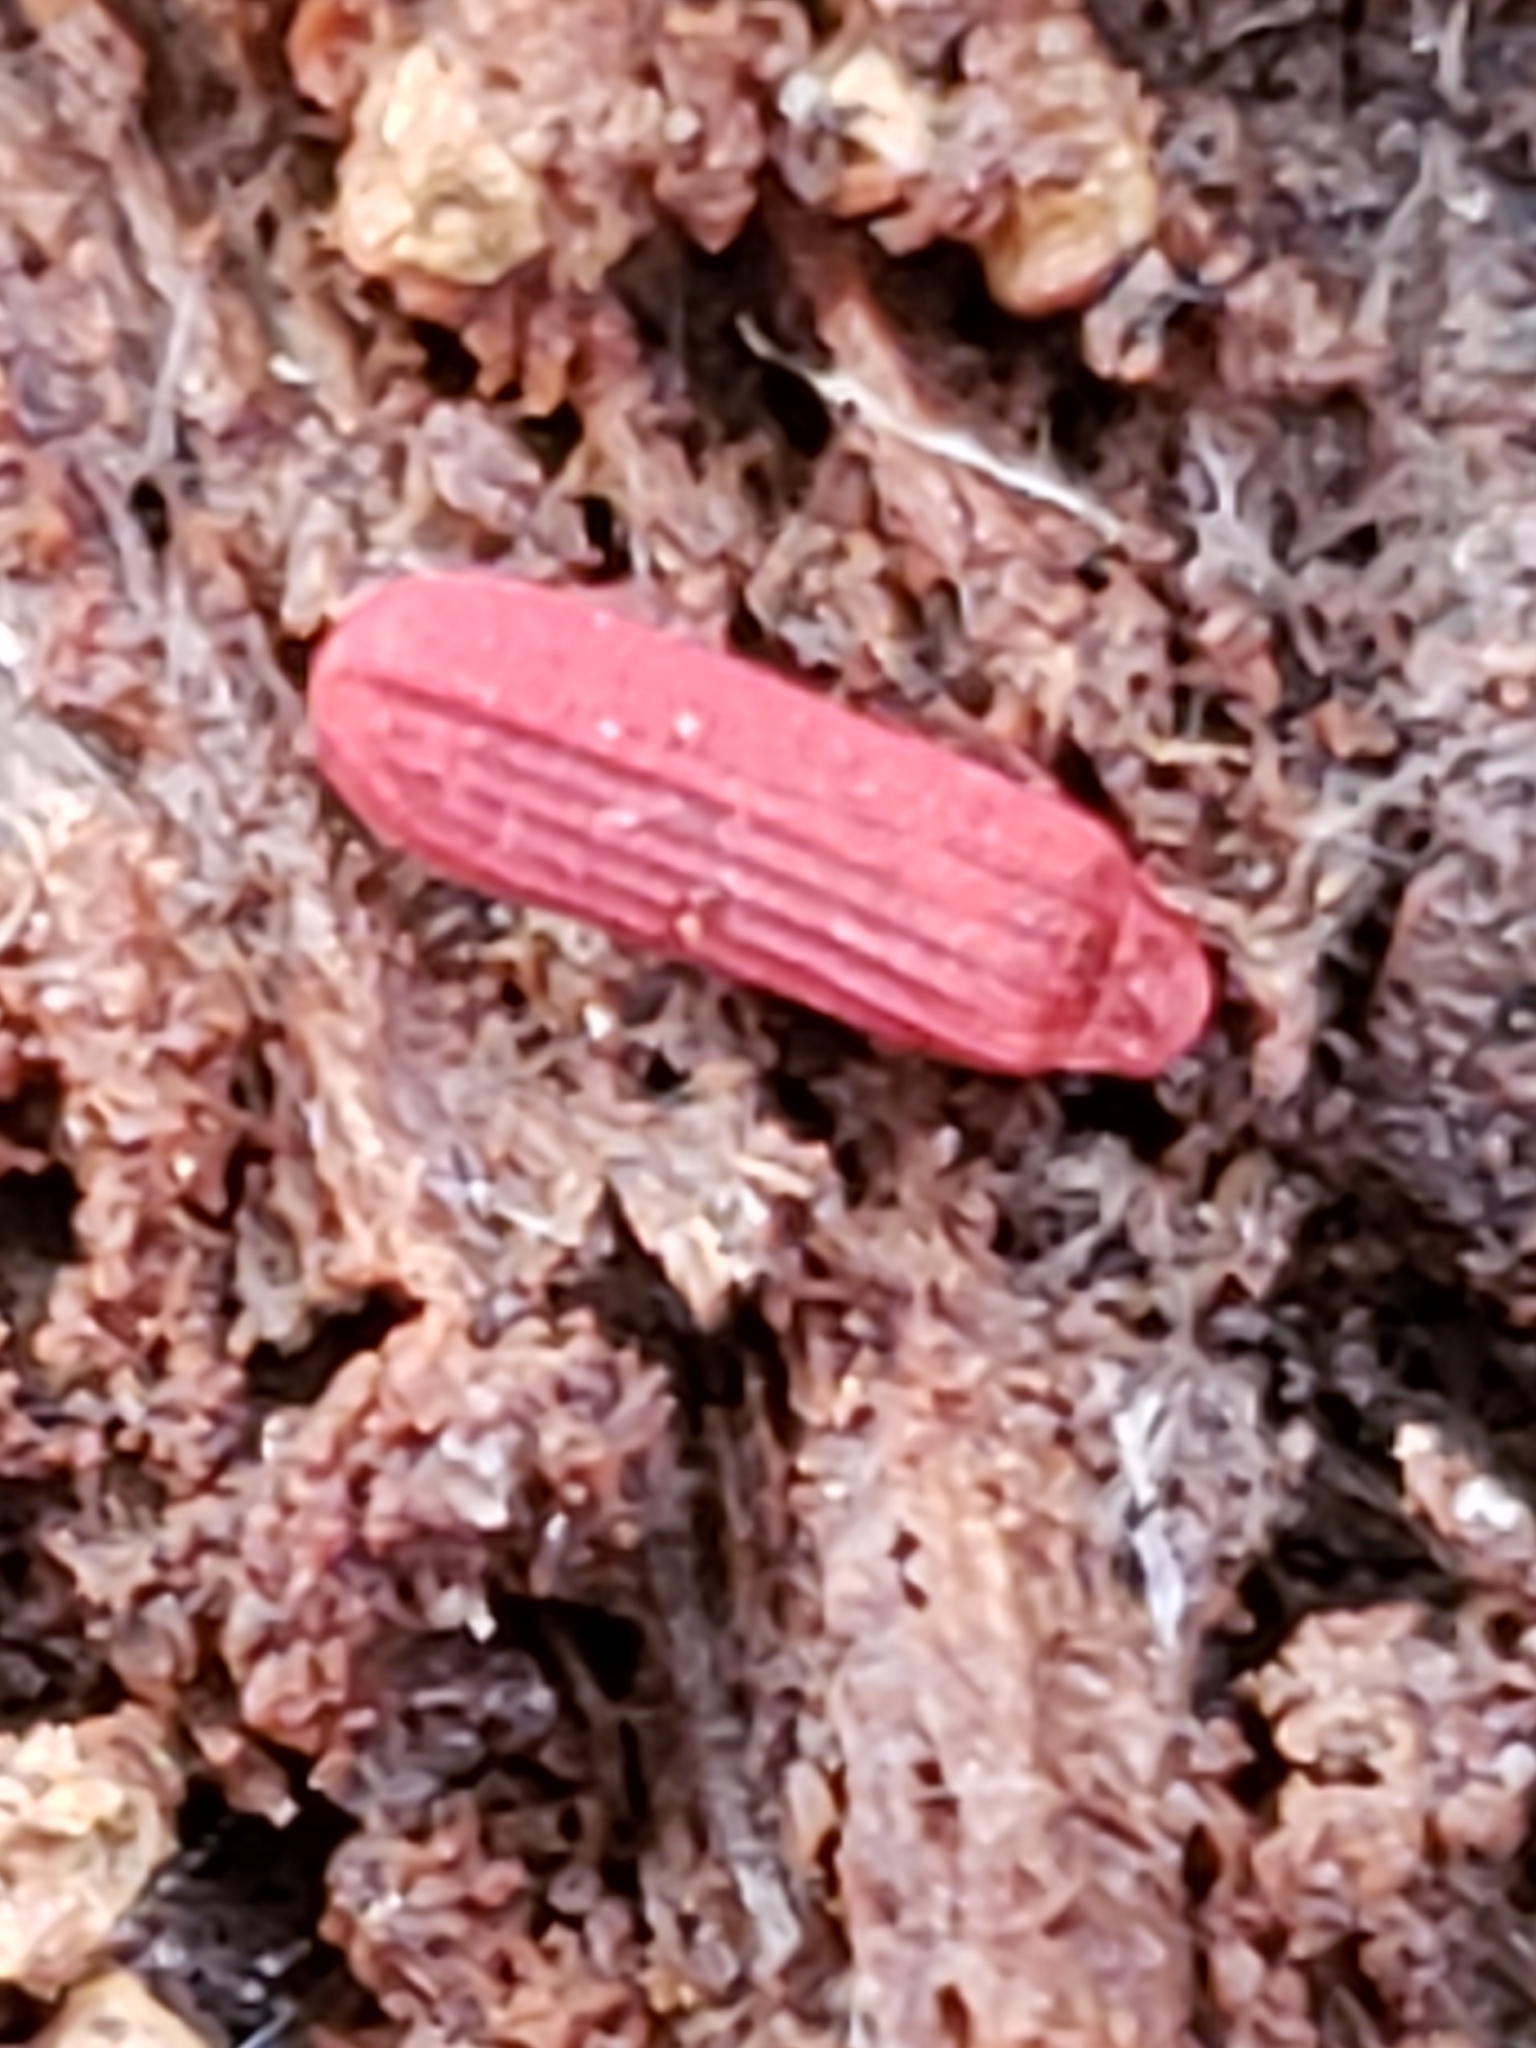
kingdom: Animalia
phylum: Arthropoda
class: Insecta
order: Coleoptera
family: Lycidae
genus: Punicealis
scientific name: Punicealis
